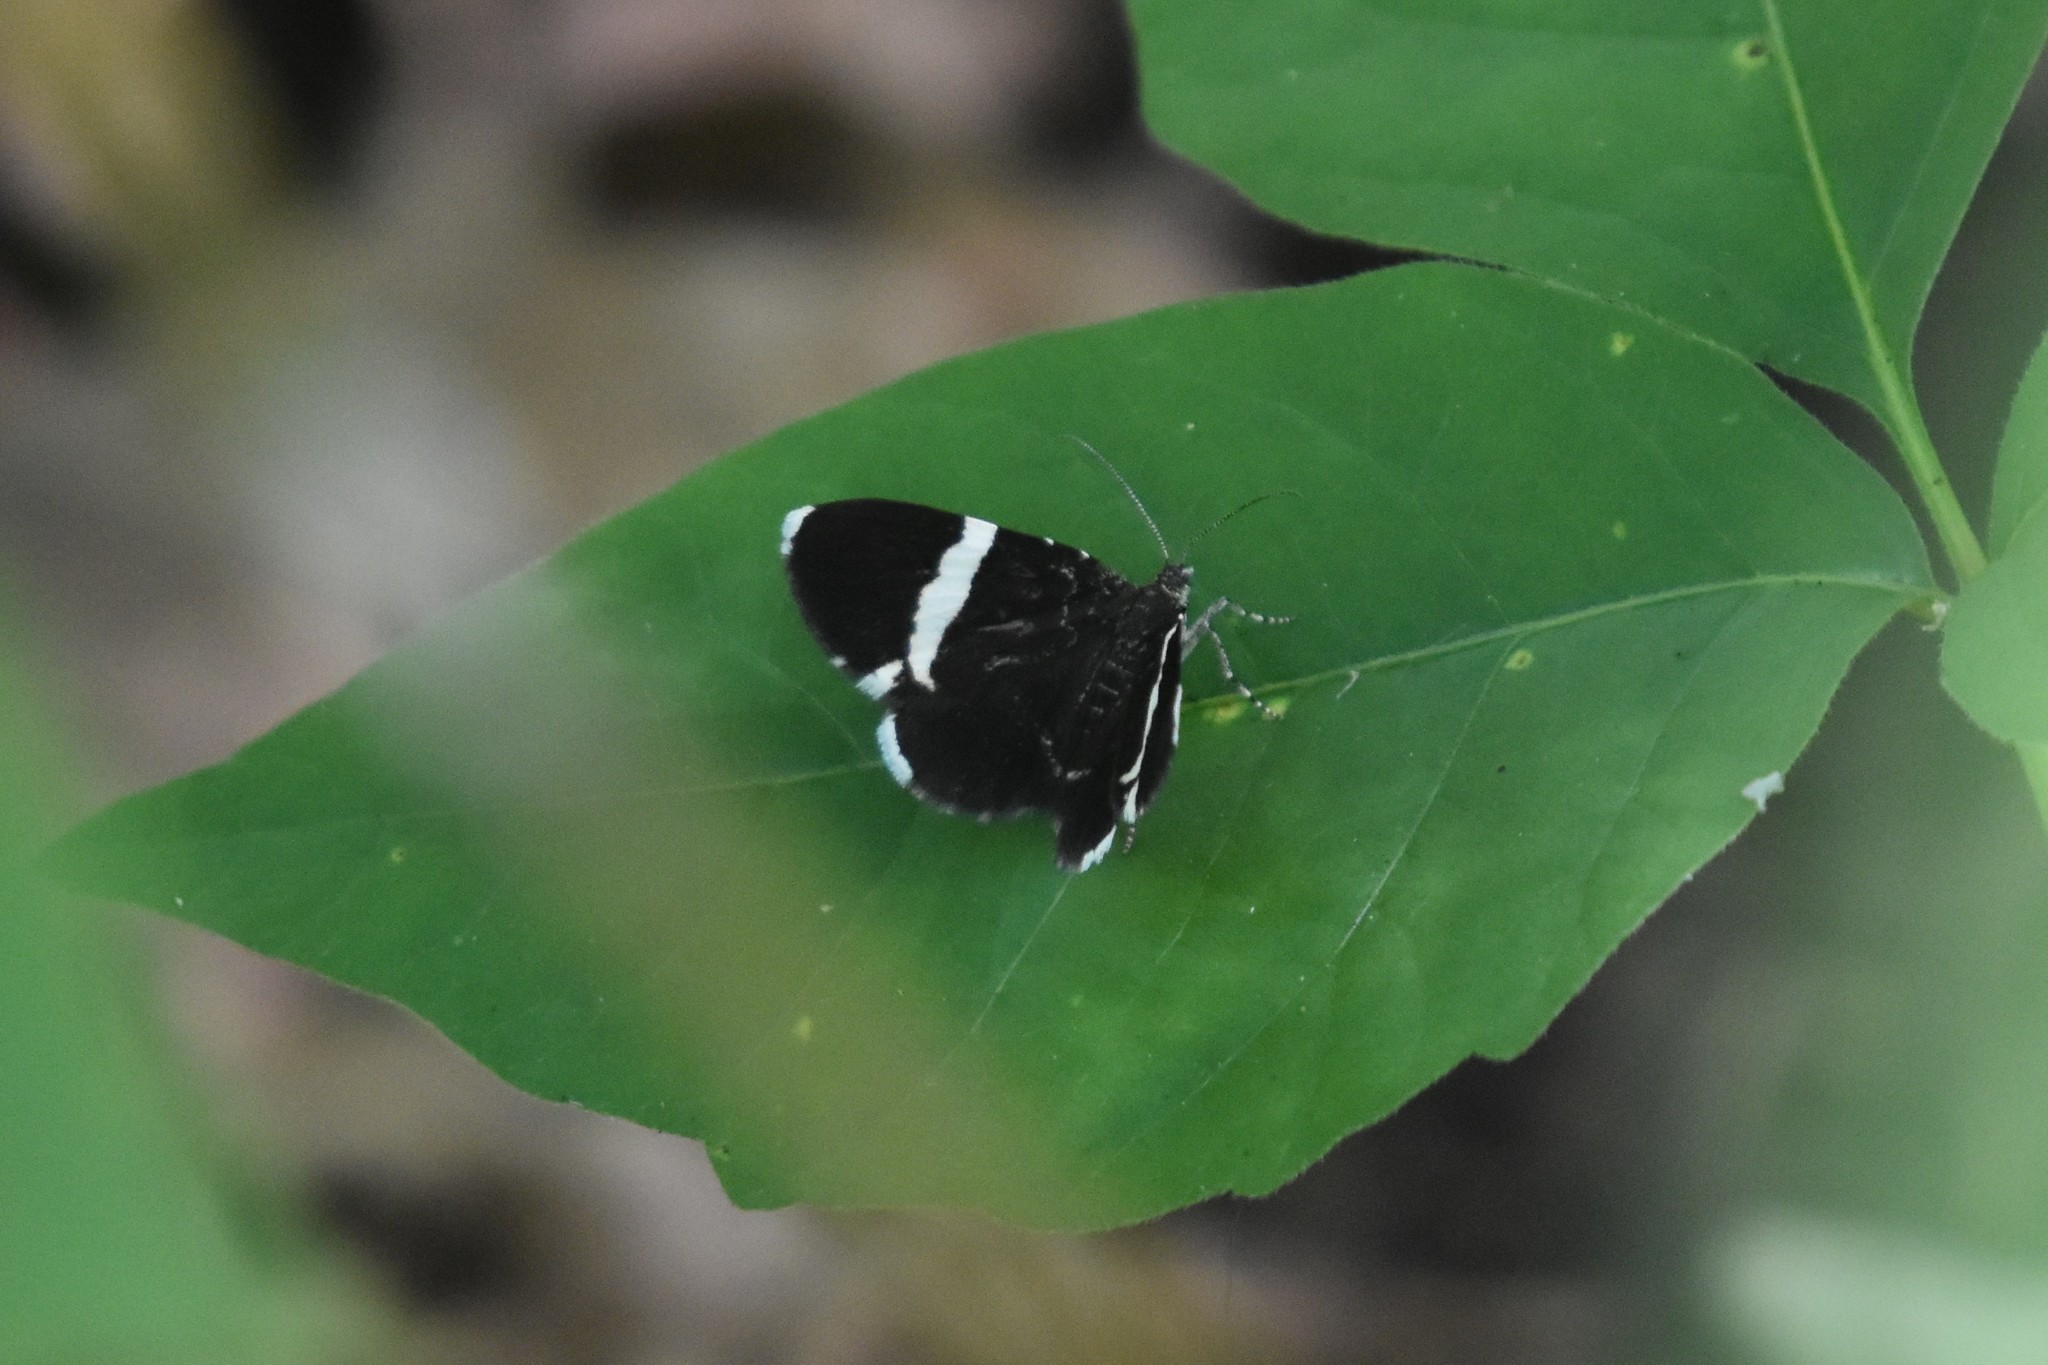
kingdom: Animalia
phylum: Arthropoda
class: Insecta
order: Lepidoptera
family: Geometridae
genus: Trichodezia
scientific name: Trichodezia albovittata
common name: White striped black
